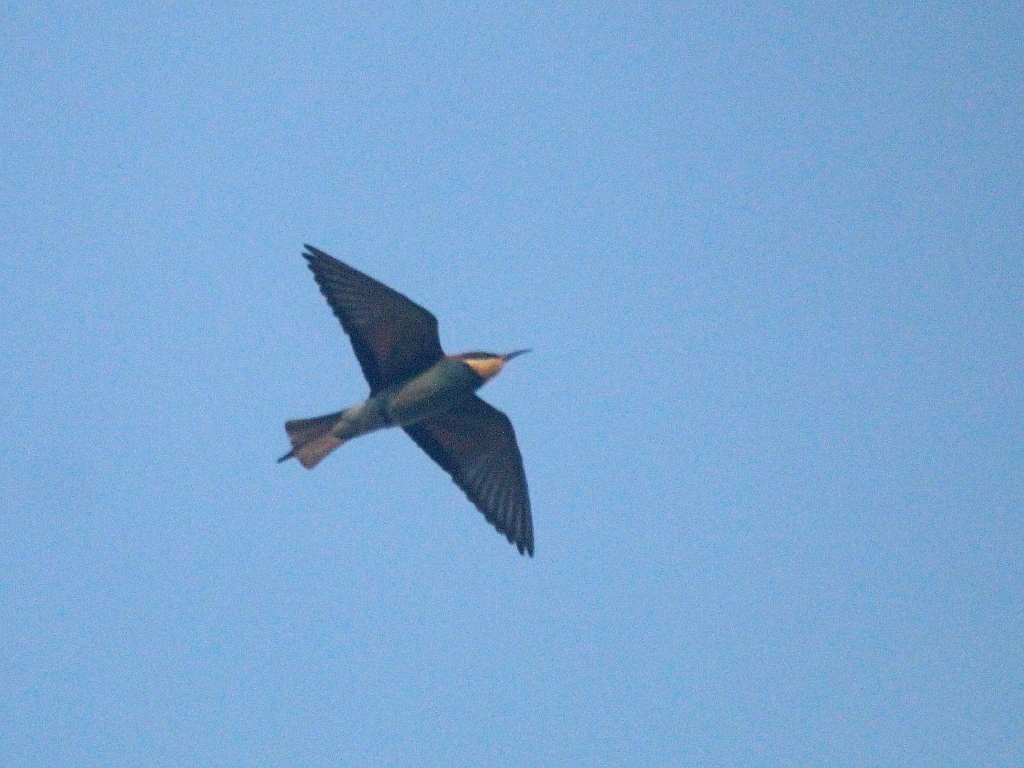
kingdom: Animalia
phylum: Chordata
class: Aves
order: Coraciiformes
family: Meropidae
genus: Merops
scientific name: Merops apiaster
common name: European bee-eater
